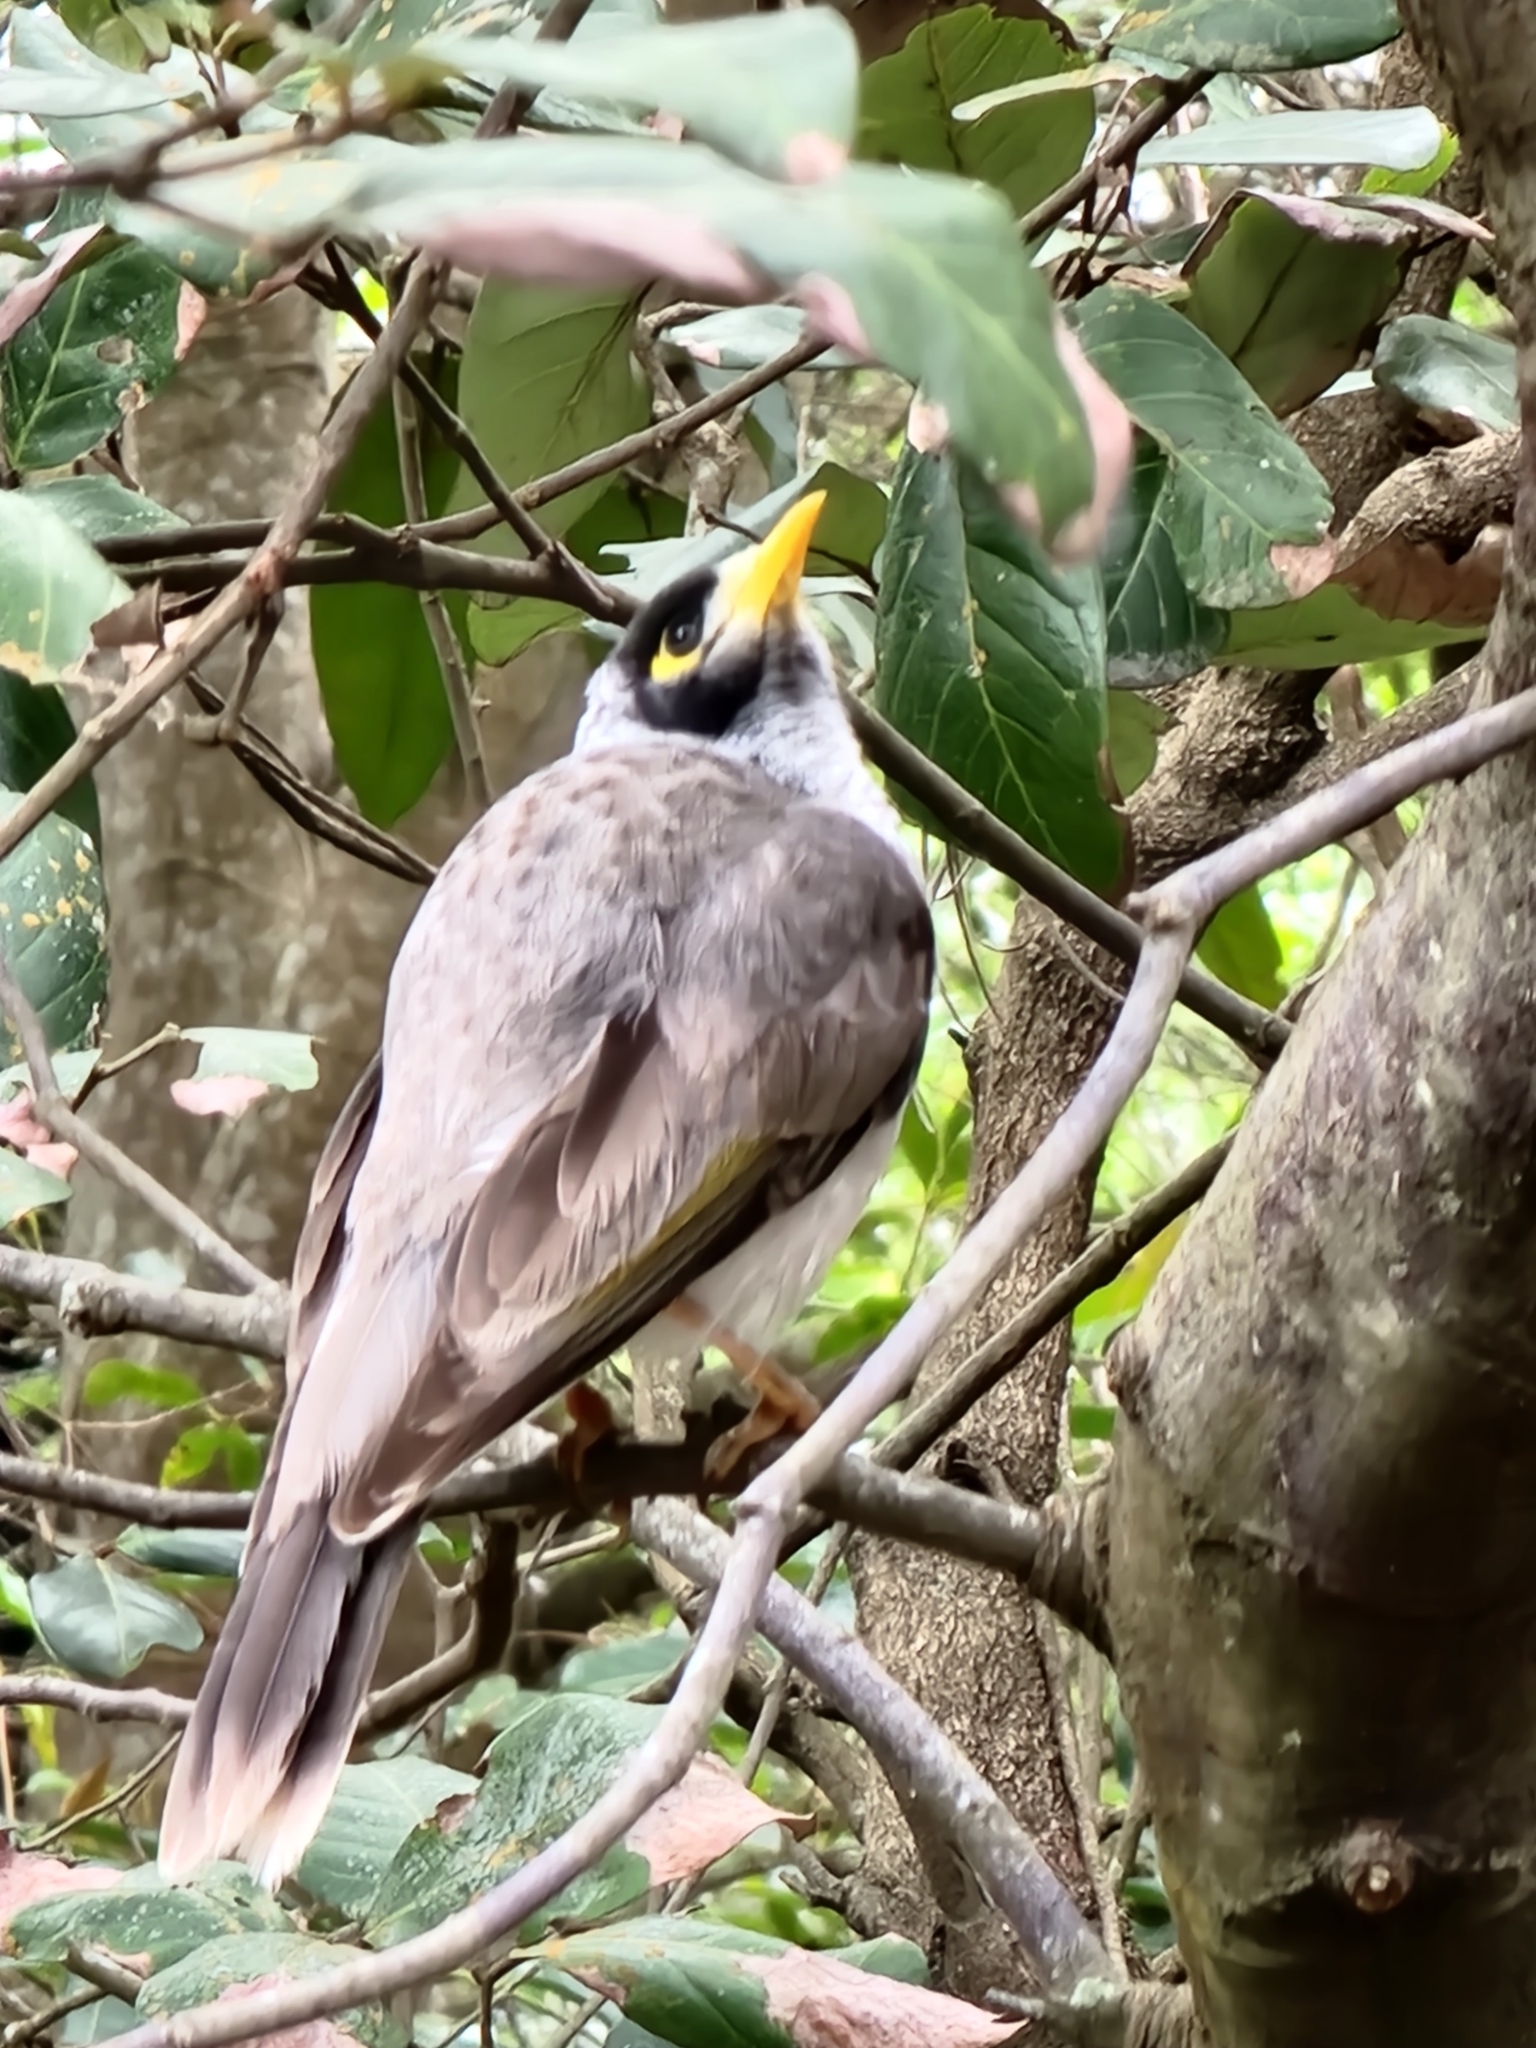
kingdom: Animalia
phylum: Chordata
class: Aves
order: Passeriformes
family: Meliphagidae
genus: Manorina
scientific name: Manorina melanocephala
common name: Noisy miner
